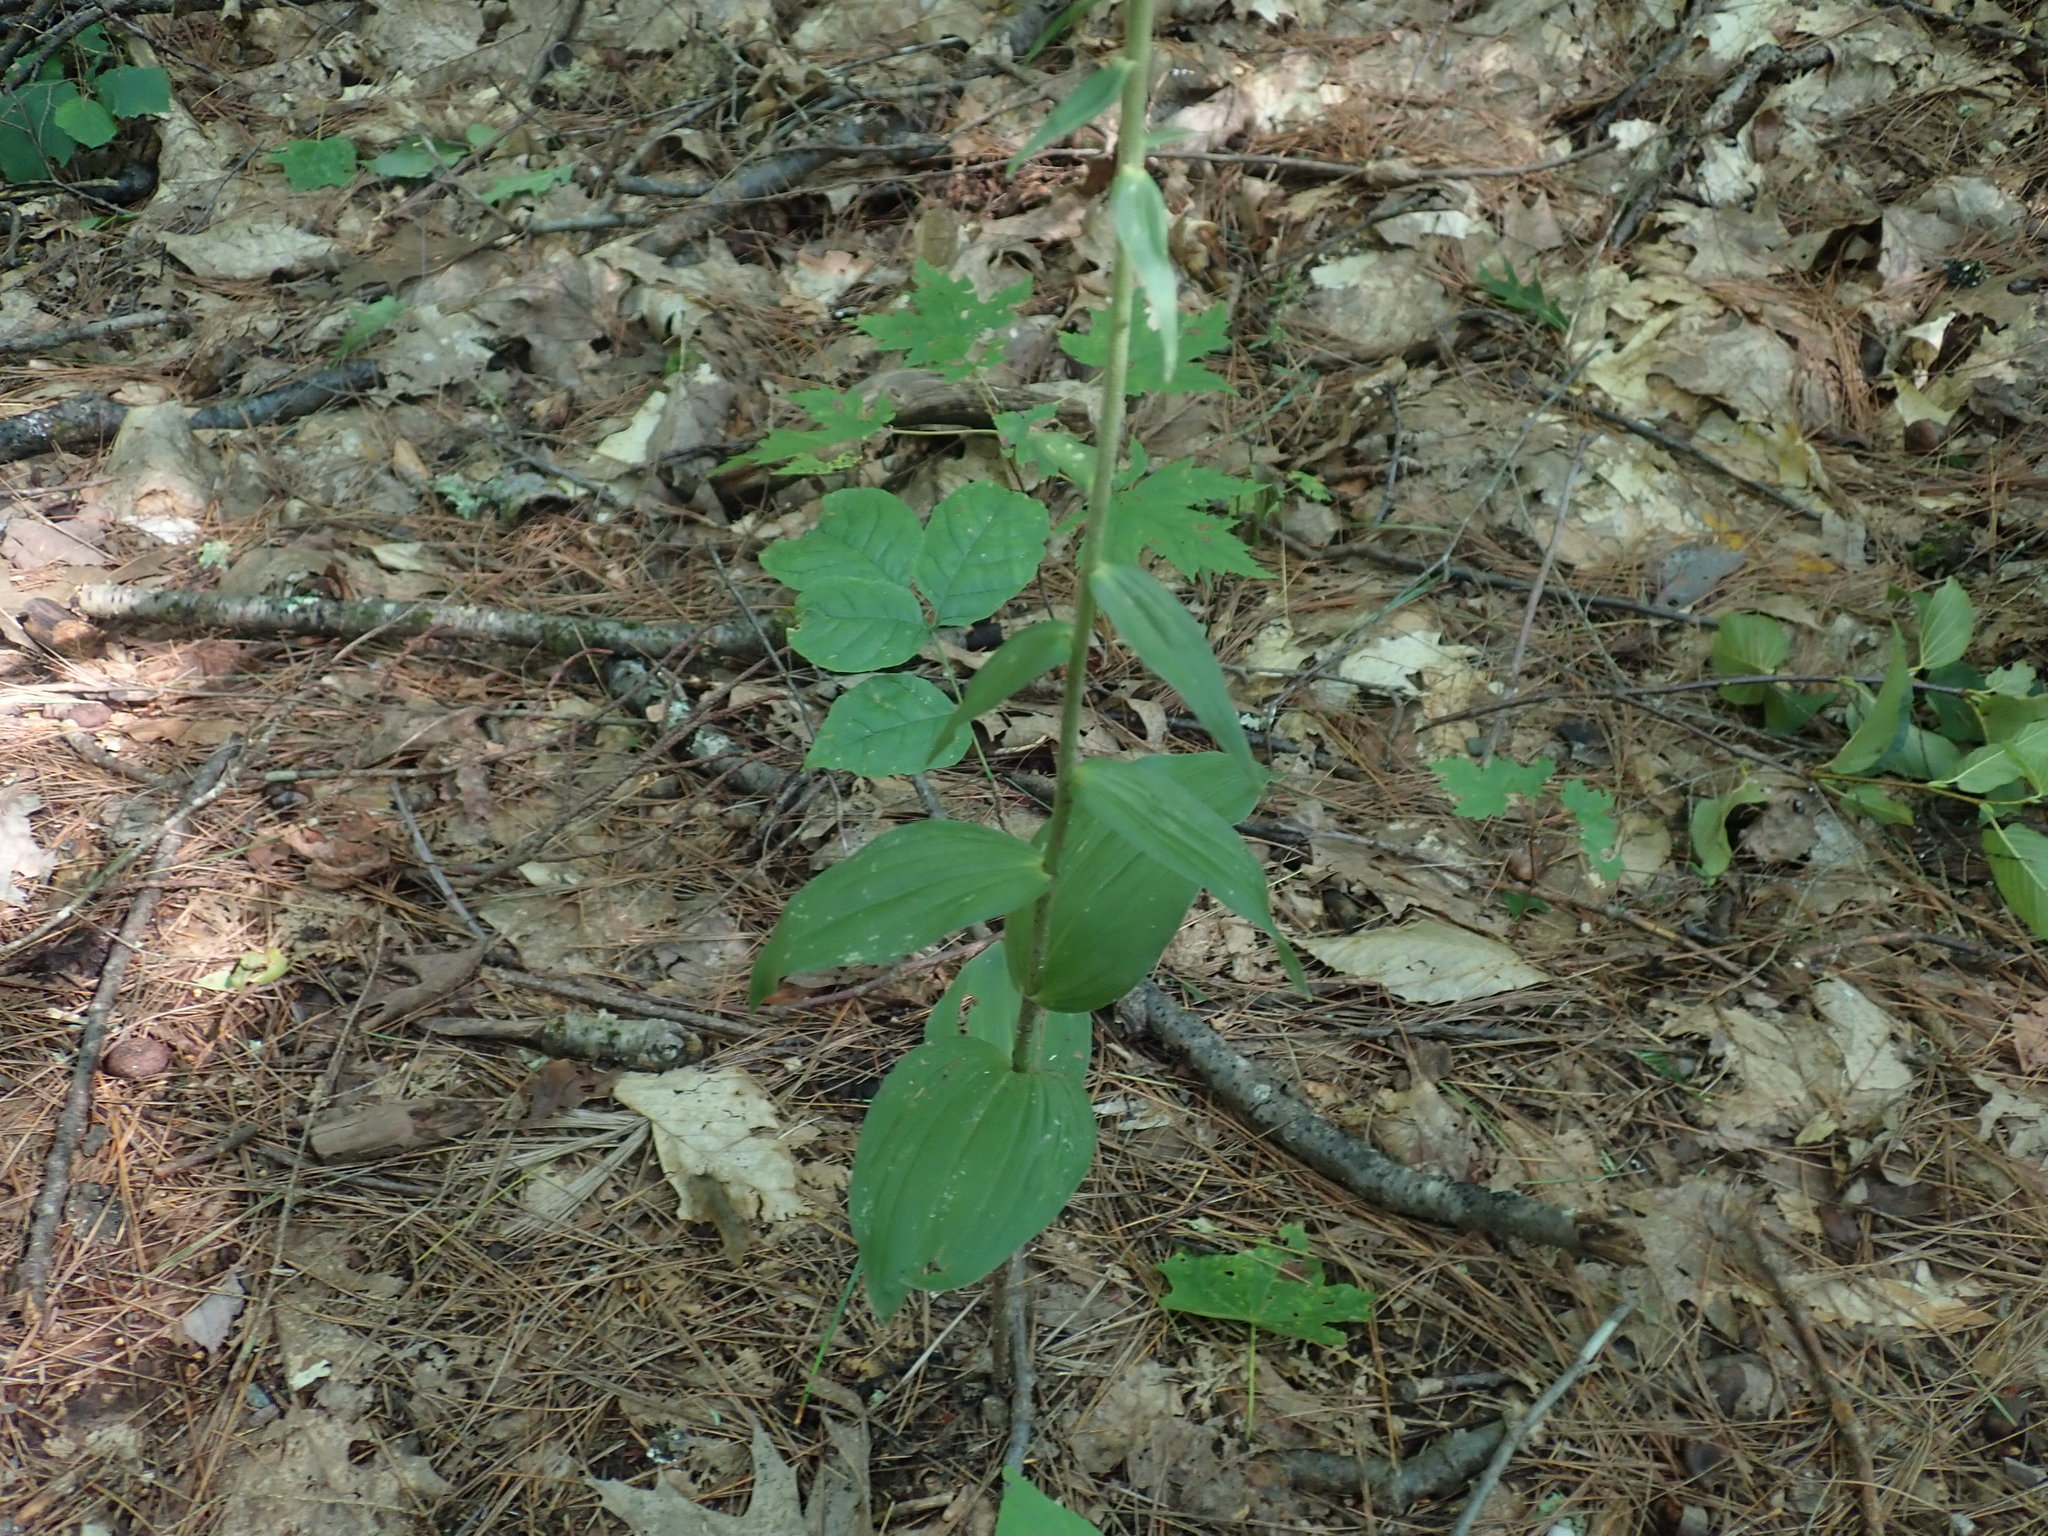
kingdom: Plantae
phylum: Tracheophyta
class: Liliopsida
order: Asparagales
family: Orchidaceae
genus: Epipactis
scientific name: Epipactis helleborine
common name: Broad-leaved helleborine
